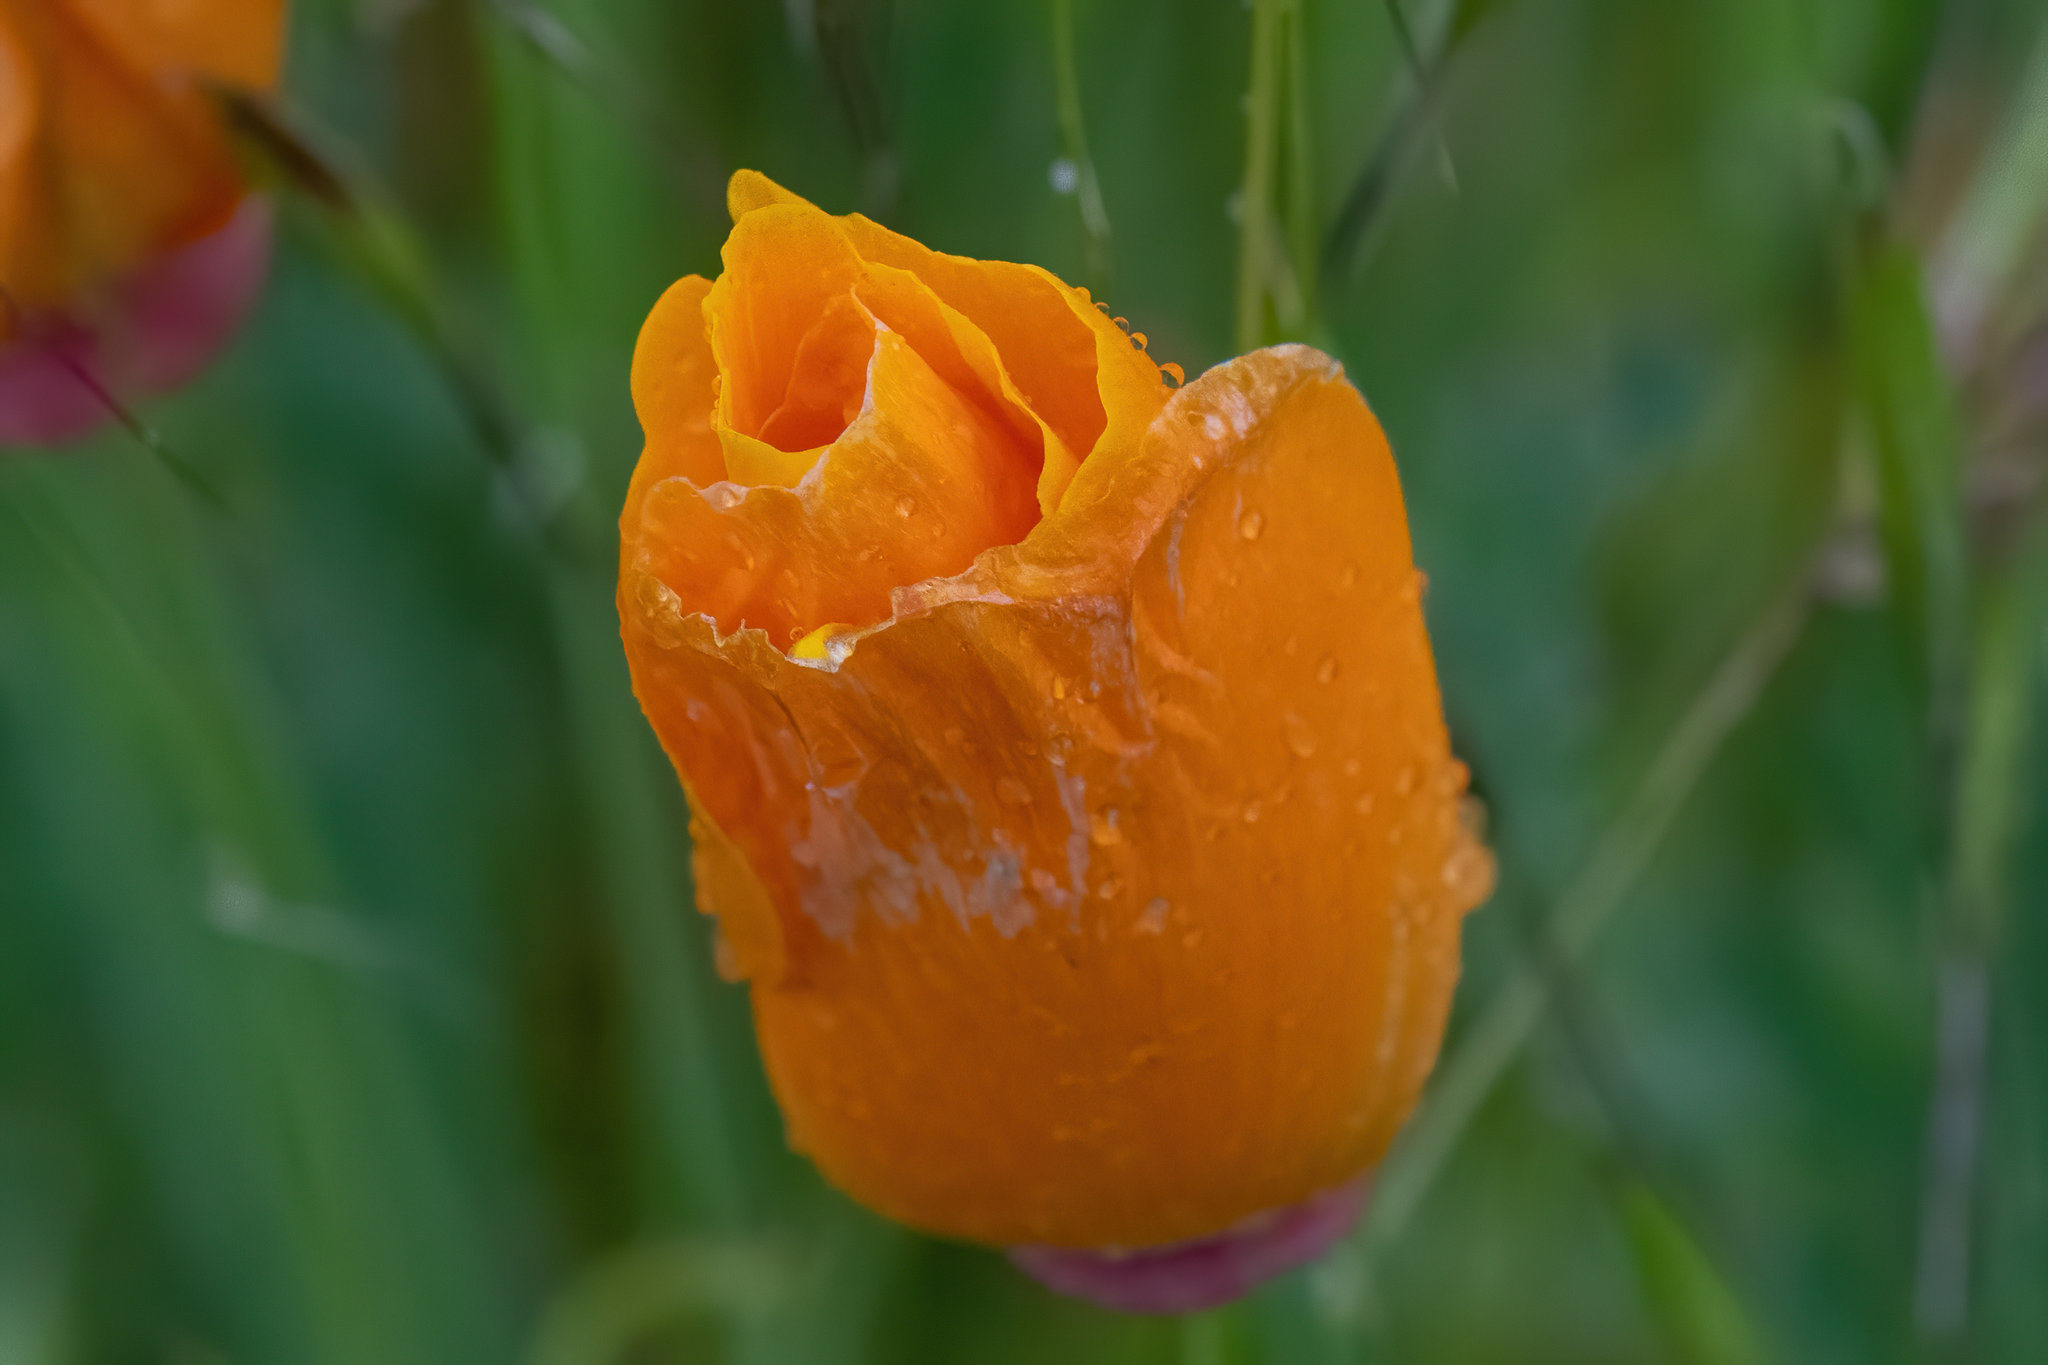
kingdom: Plantae
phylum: Tracheophyta
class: Magnoliopsida
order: Ranunculales
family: Papaveraceae
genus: Eschscholzia
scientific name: Eschscholzia californica
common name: California poppy
